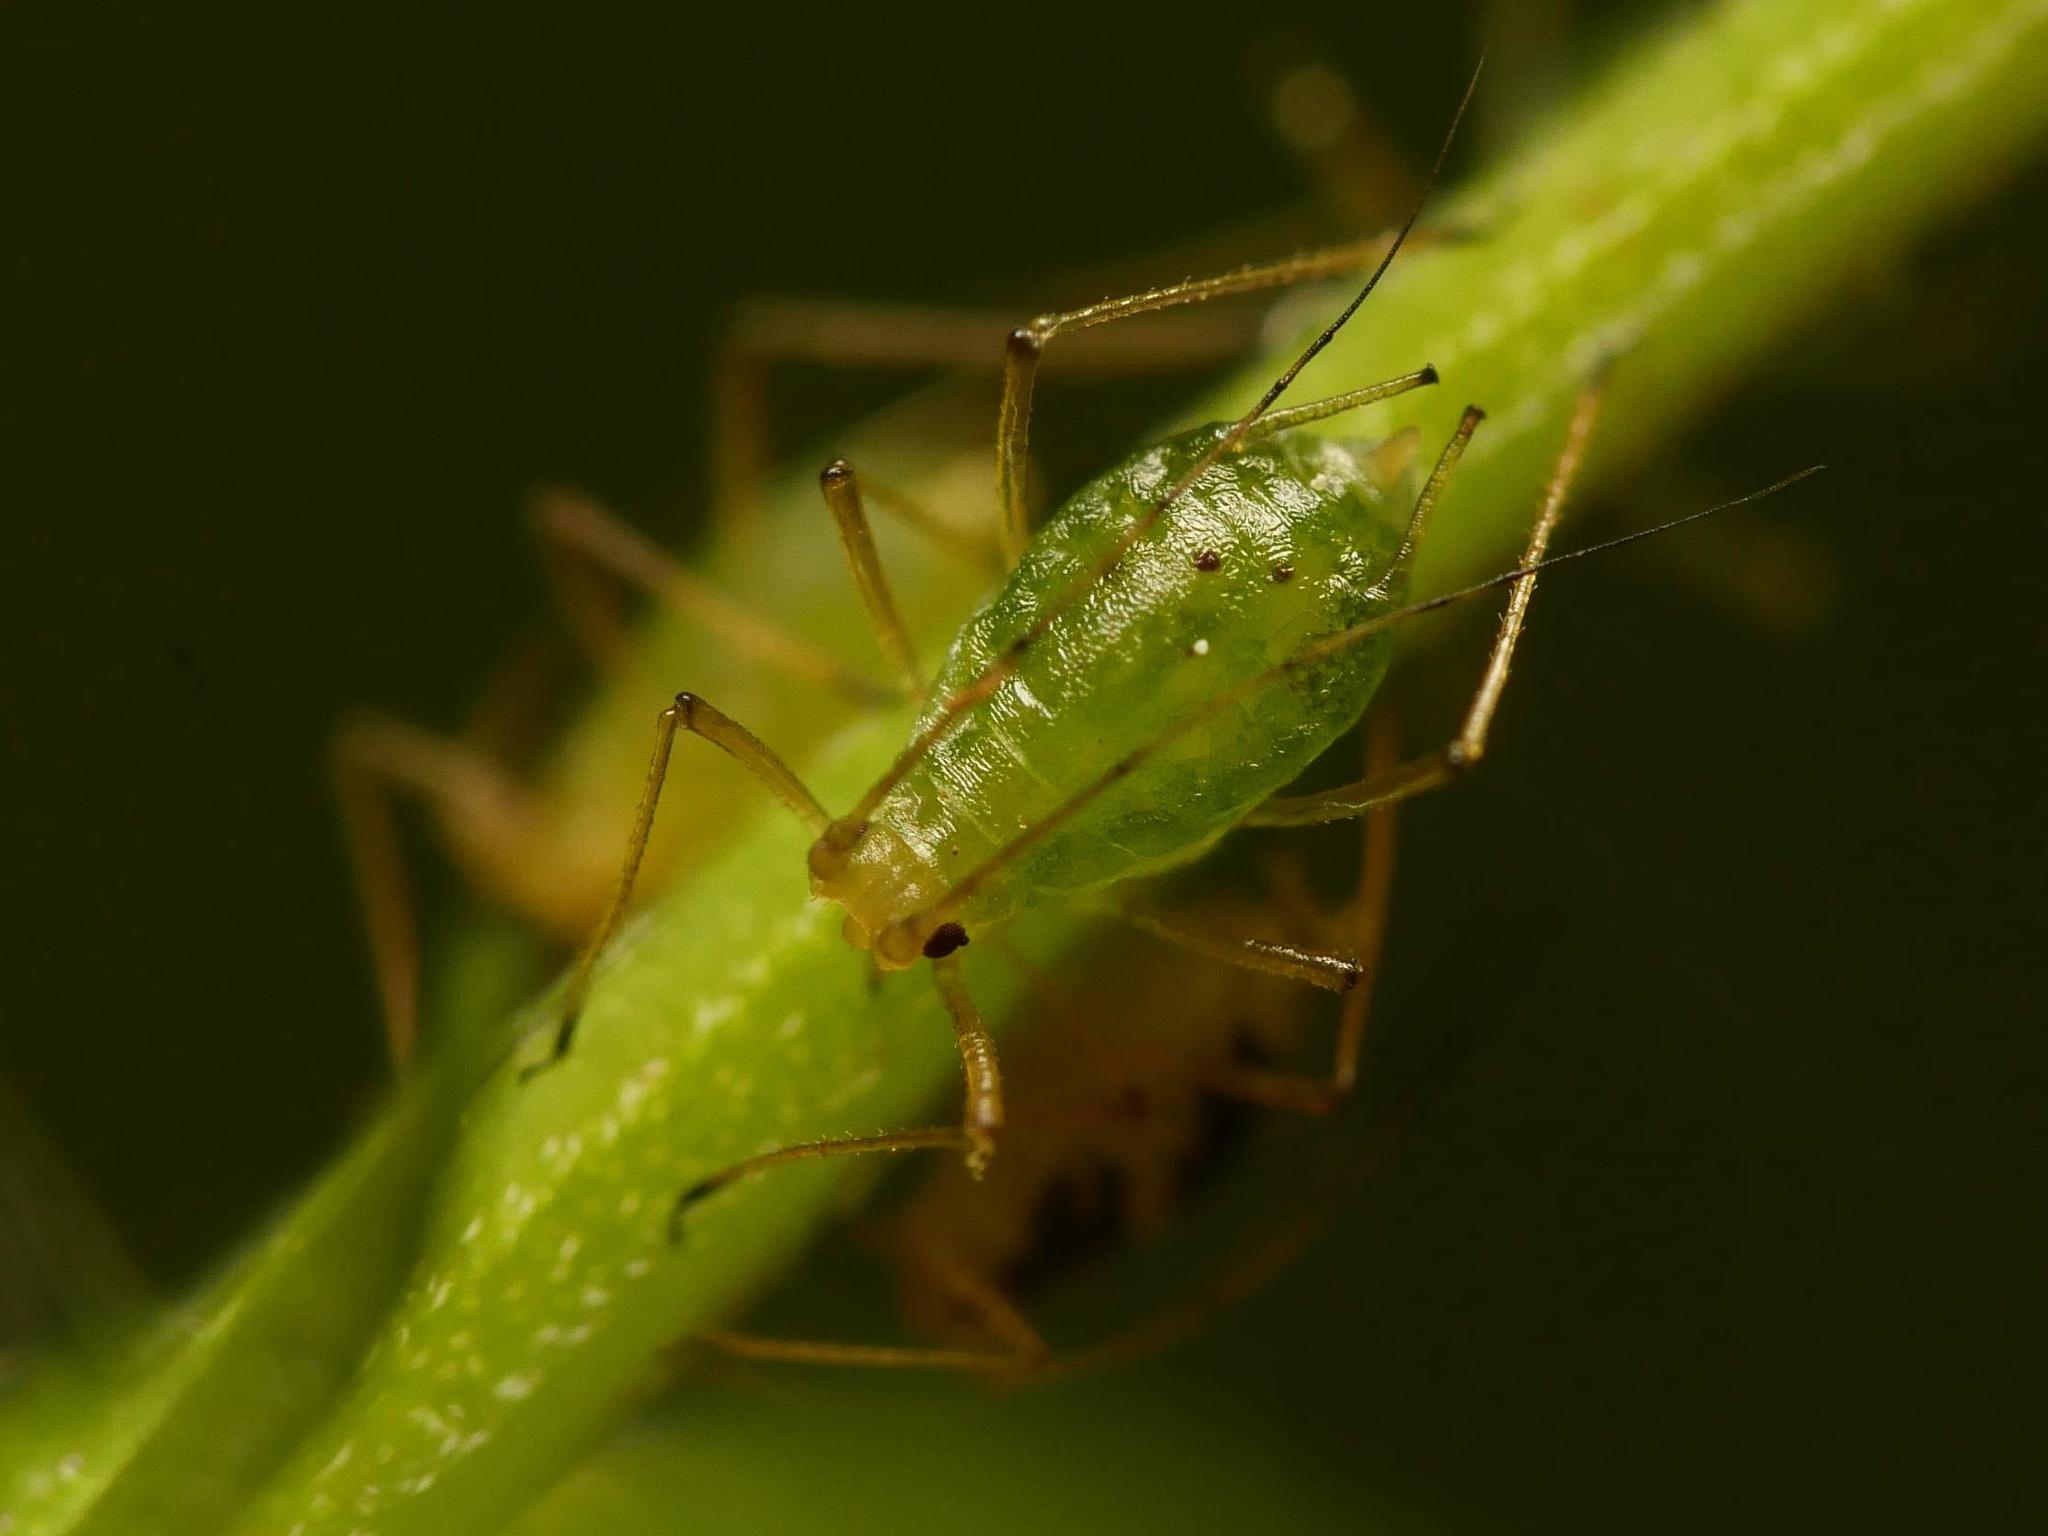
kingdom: Animalia
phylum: Arthropoda
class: Insecta
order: Hemiptera
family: Aphididae
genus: Aulacorthum
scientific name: Aulacorthum solani
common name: Foxglove aphid
